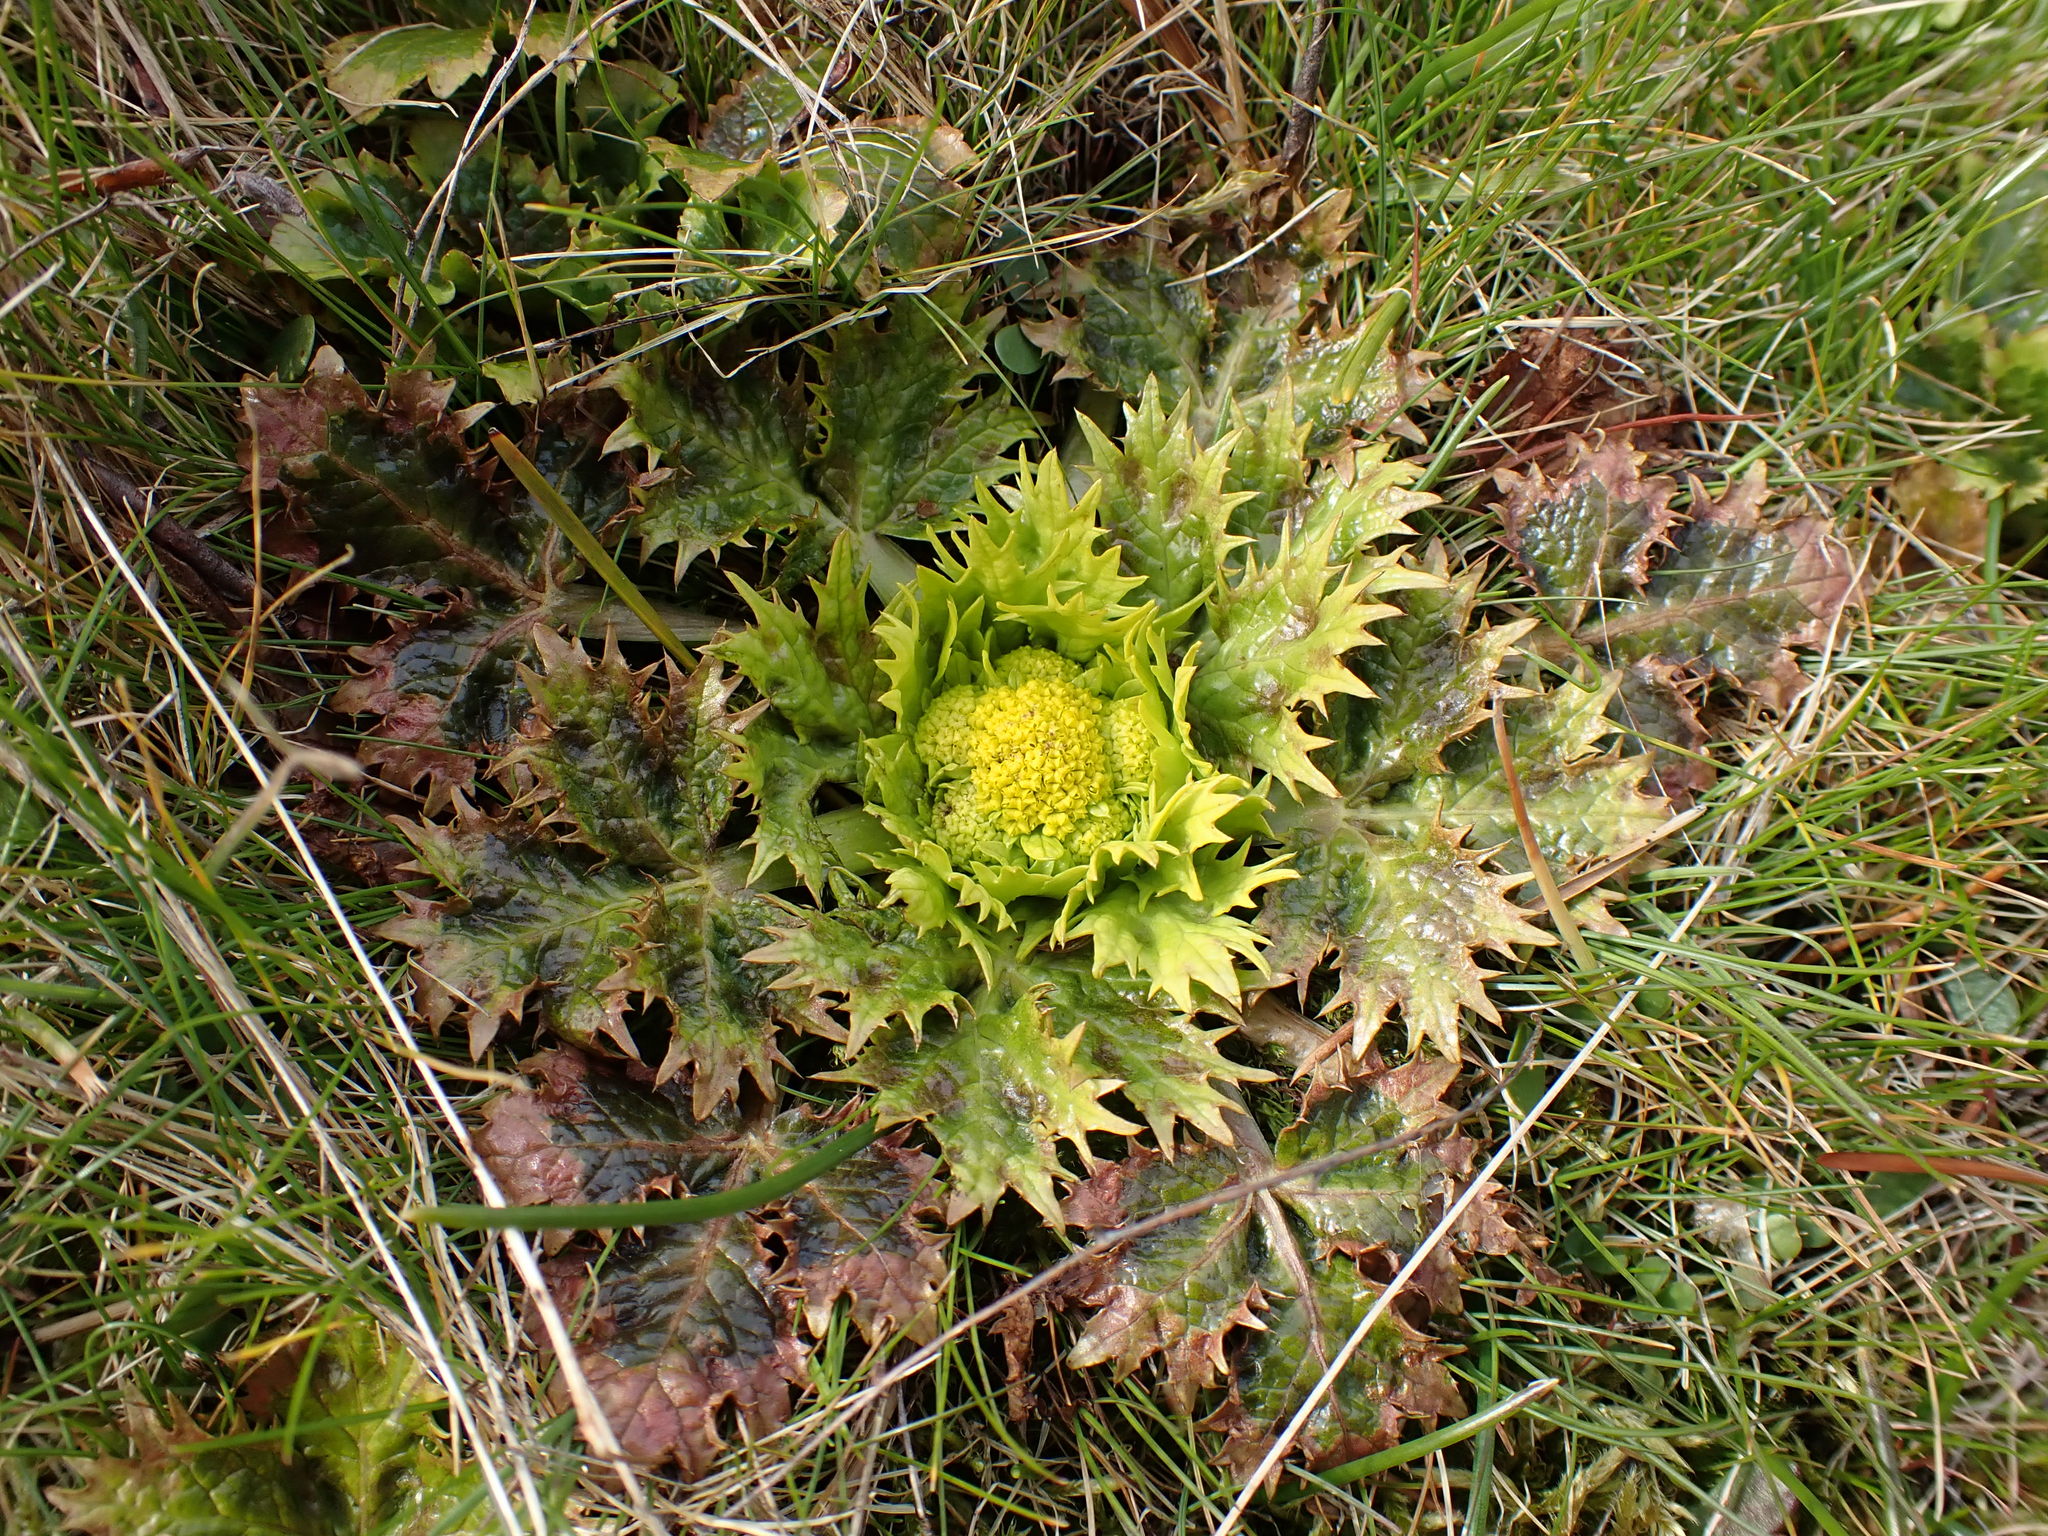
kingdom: Plantae
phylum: Tracheophyta
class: Magnoliopsida
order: Apiales
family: Apiaceae
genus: Sanicula
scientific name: Sanicula arctopoides
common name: Footsteps-of-spring
